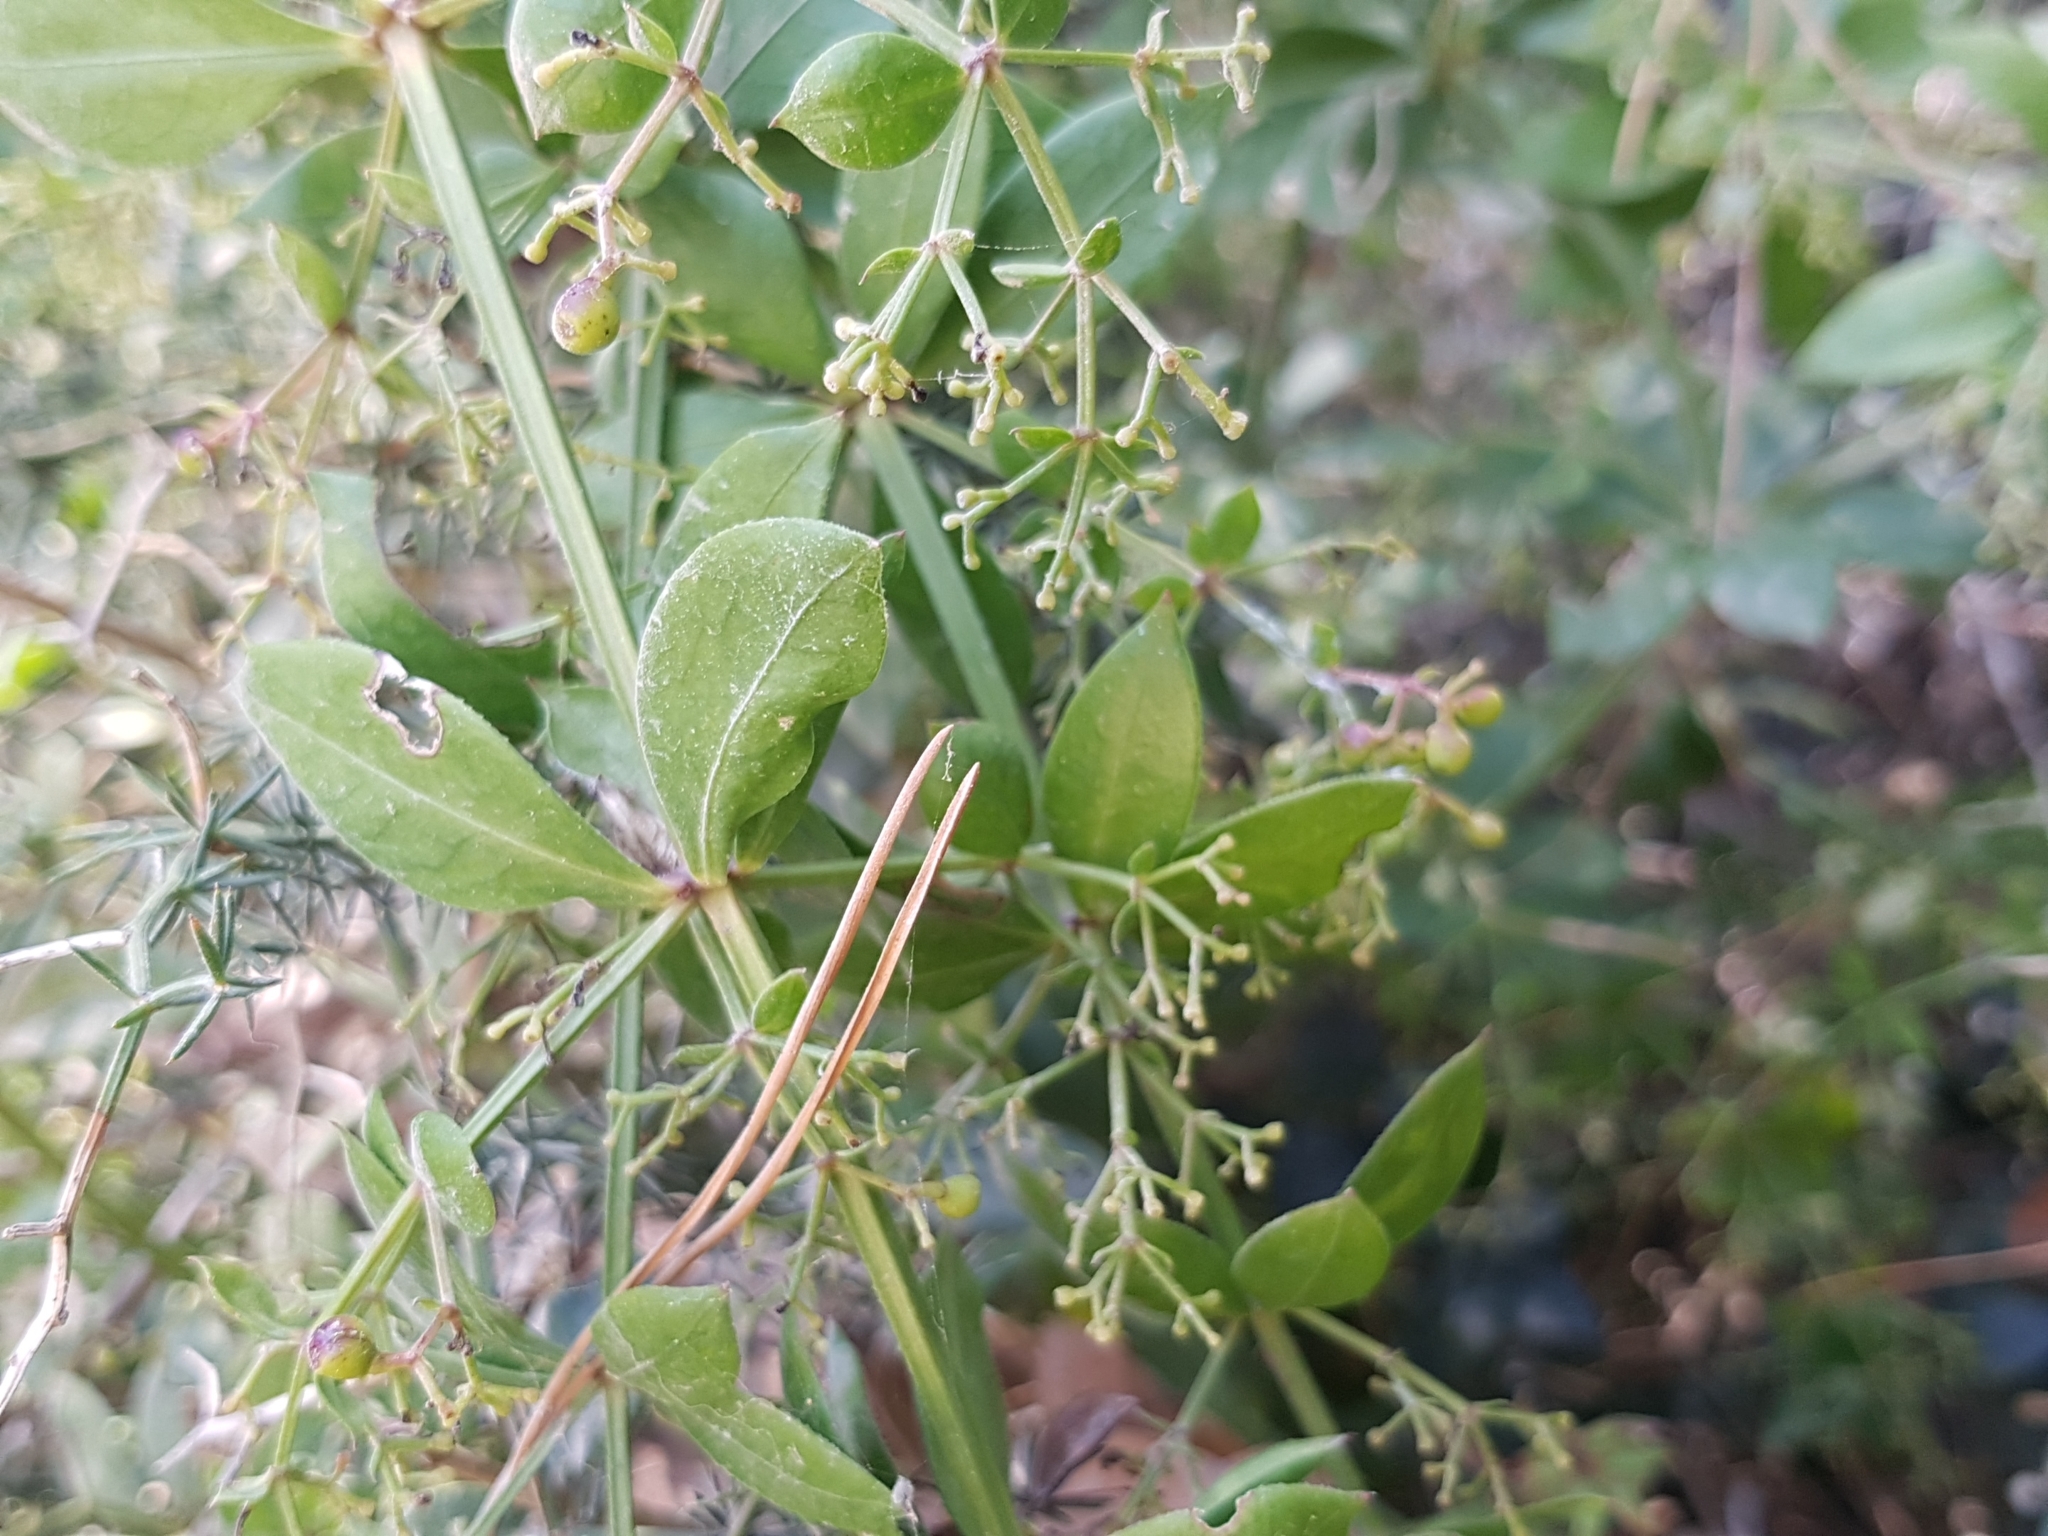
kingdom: Plantae
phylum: Tracheophyta
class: Magnoliopsida
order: Gentianales
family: Rubiaceae
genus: Rubia
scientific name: Rubia peregrina
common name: Wild madder
